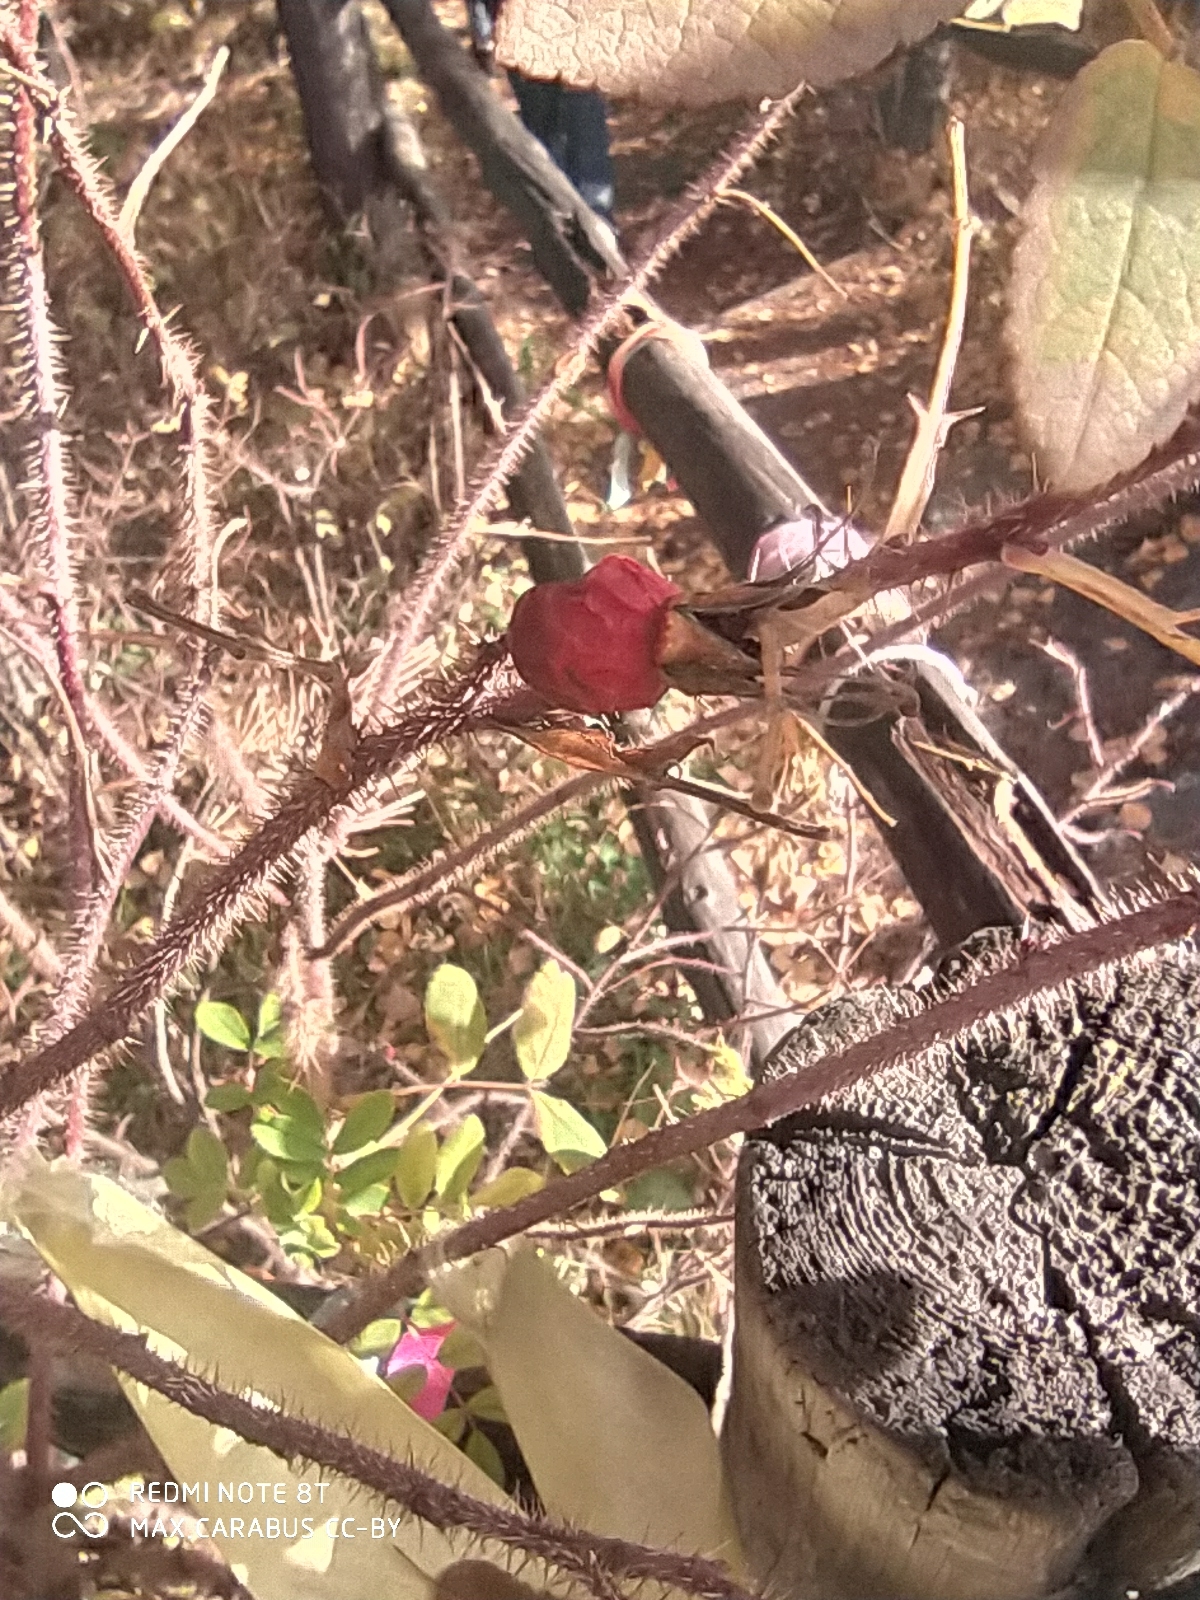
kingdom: Plantae
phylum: Tracheophyta
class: Magnoliopsida
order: Rosales
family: Rosaceae
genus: Rosa
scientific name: Rosa acicularis
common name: Prickly rose
